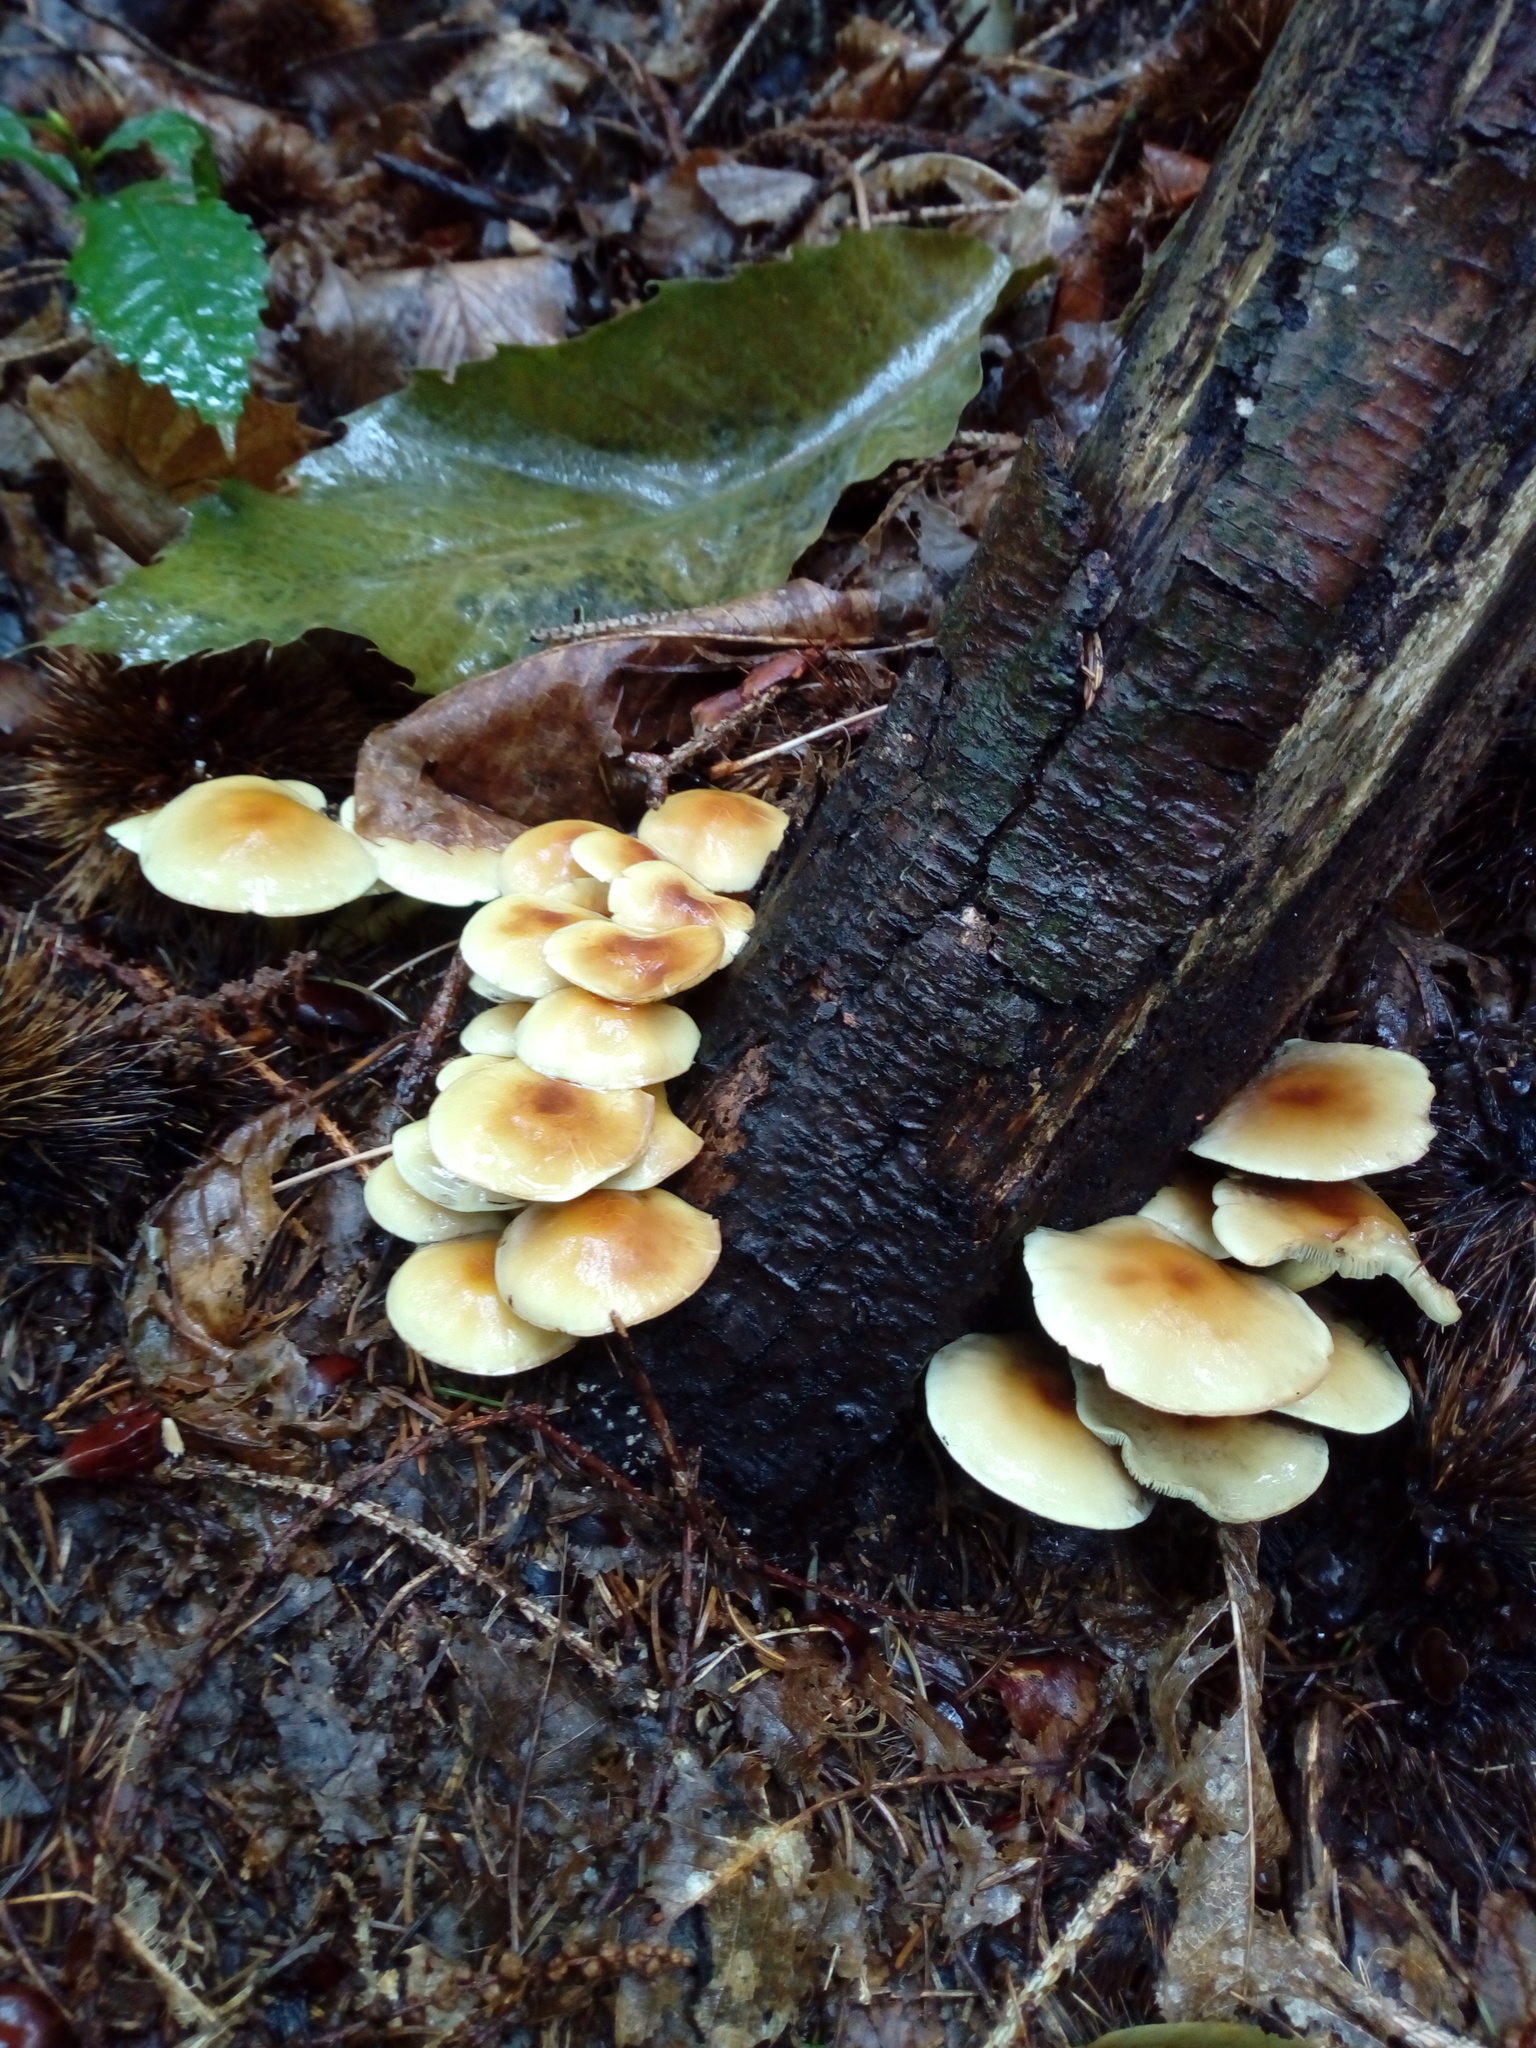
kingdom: Fungi
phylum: Basidiomycota
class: Agaricomycetes
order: Agaricales
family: Strophariaceae
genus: Hypholoma
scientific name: Hypholoma fasciculare
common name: Sulphur tuft
